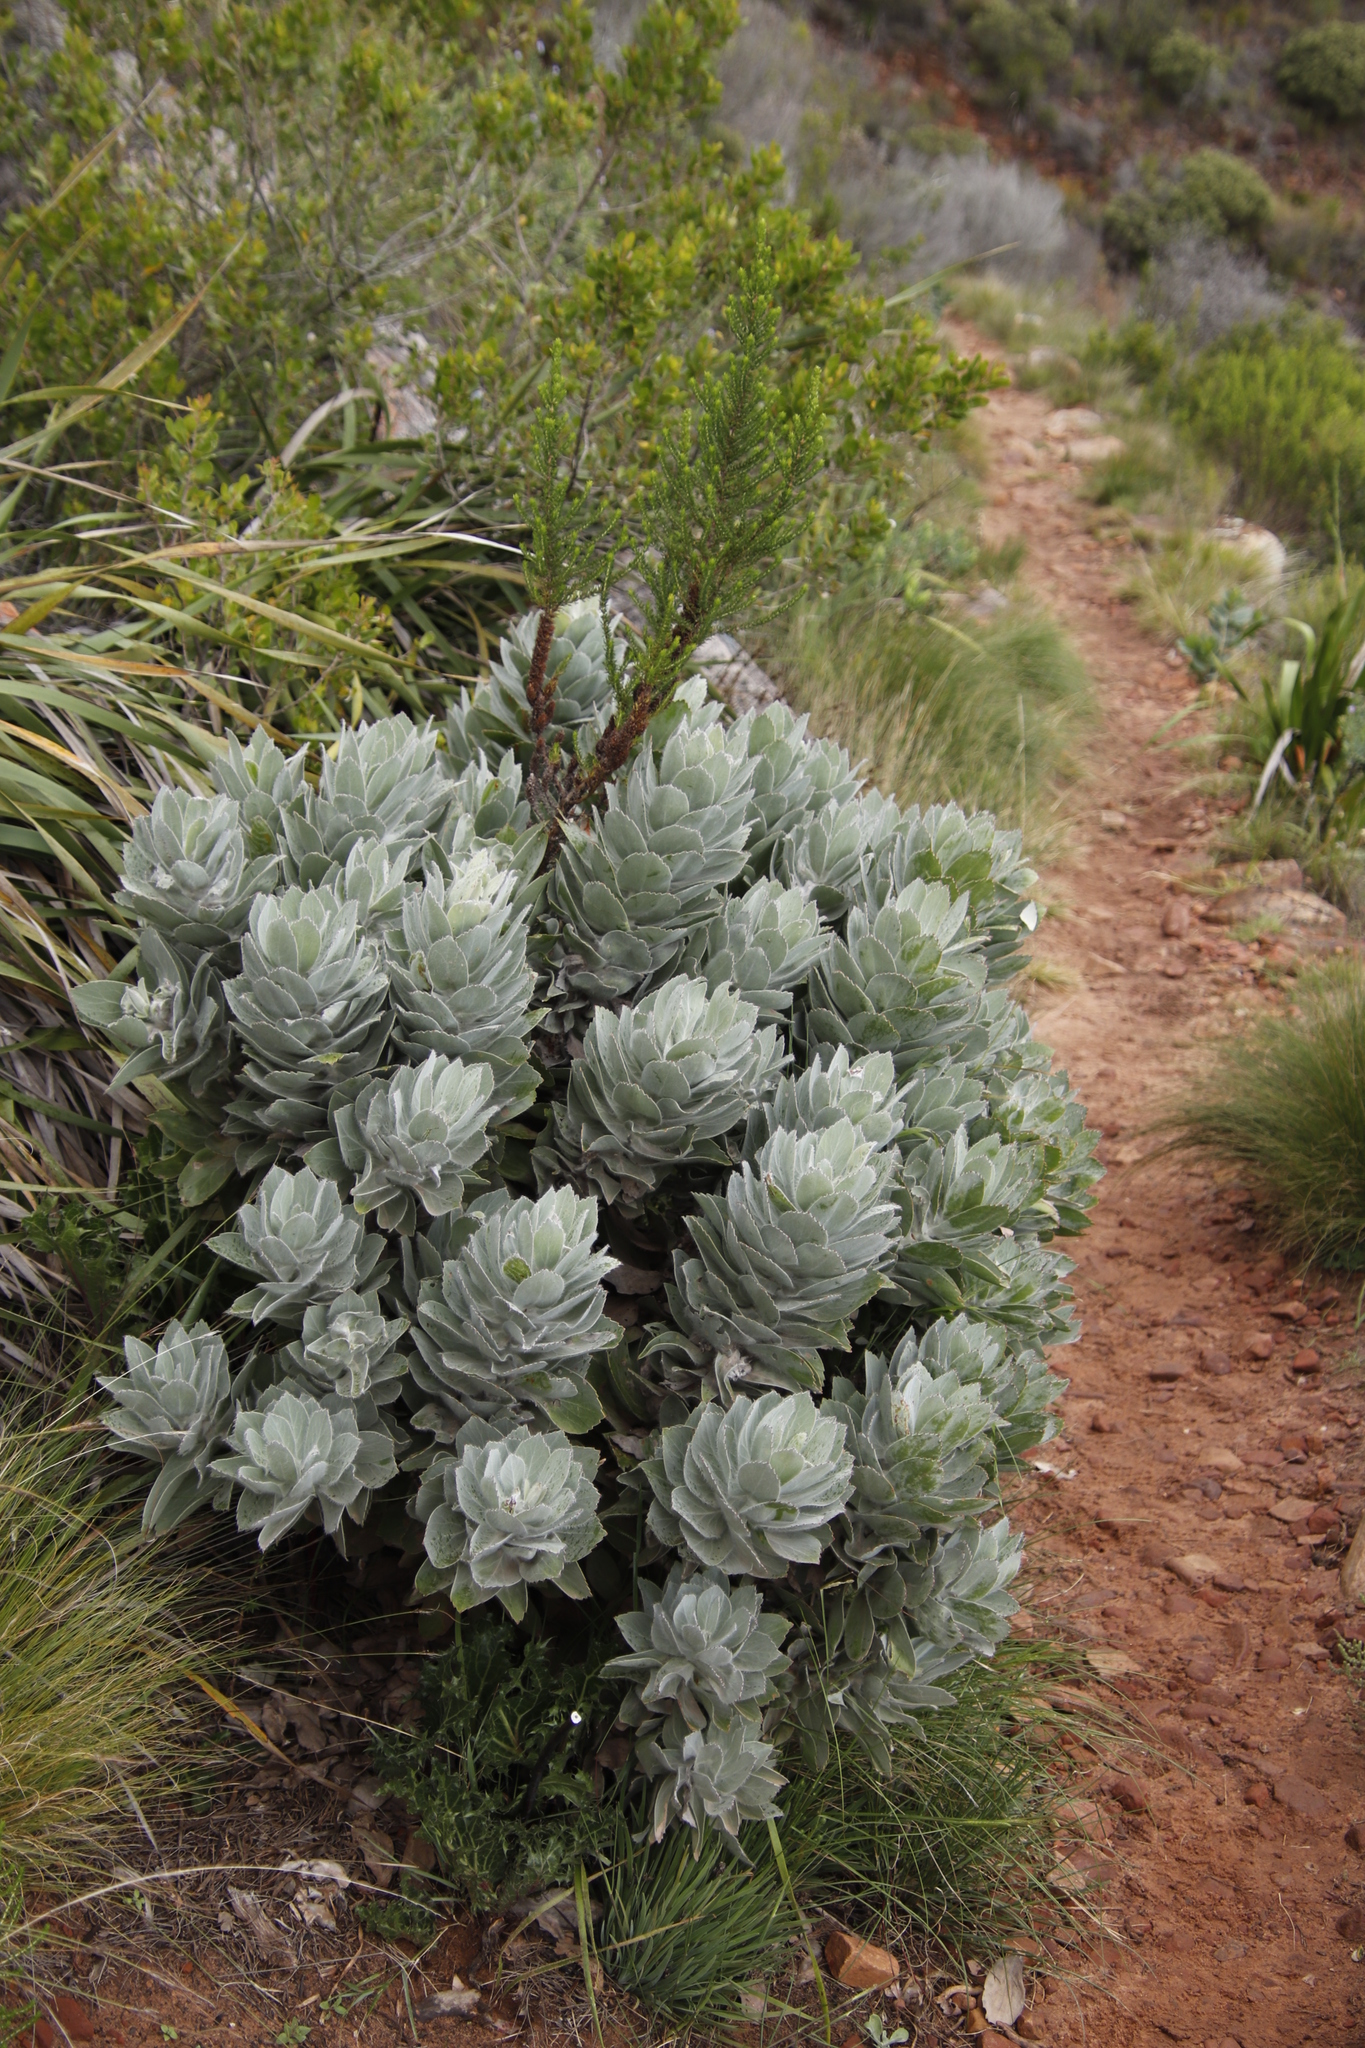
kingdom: Plantae
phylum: Tracheophyta
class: Magnoliopsida
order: Proteales
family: Proteaceae
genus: Leucospermum
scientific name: Leucospermum conocarpodendron
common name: Tree pincushion
